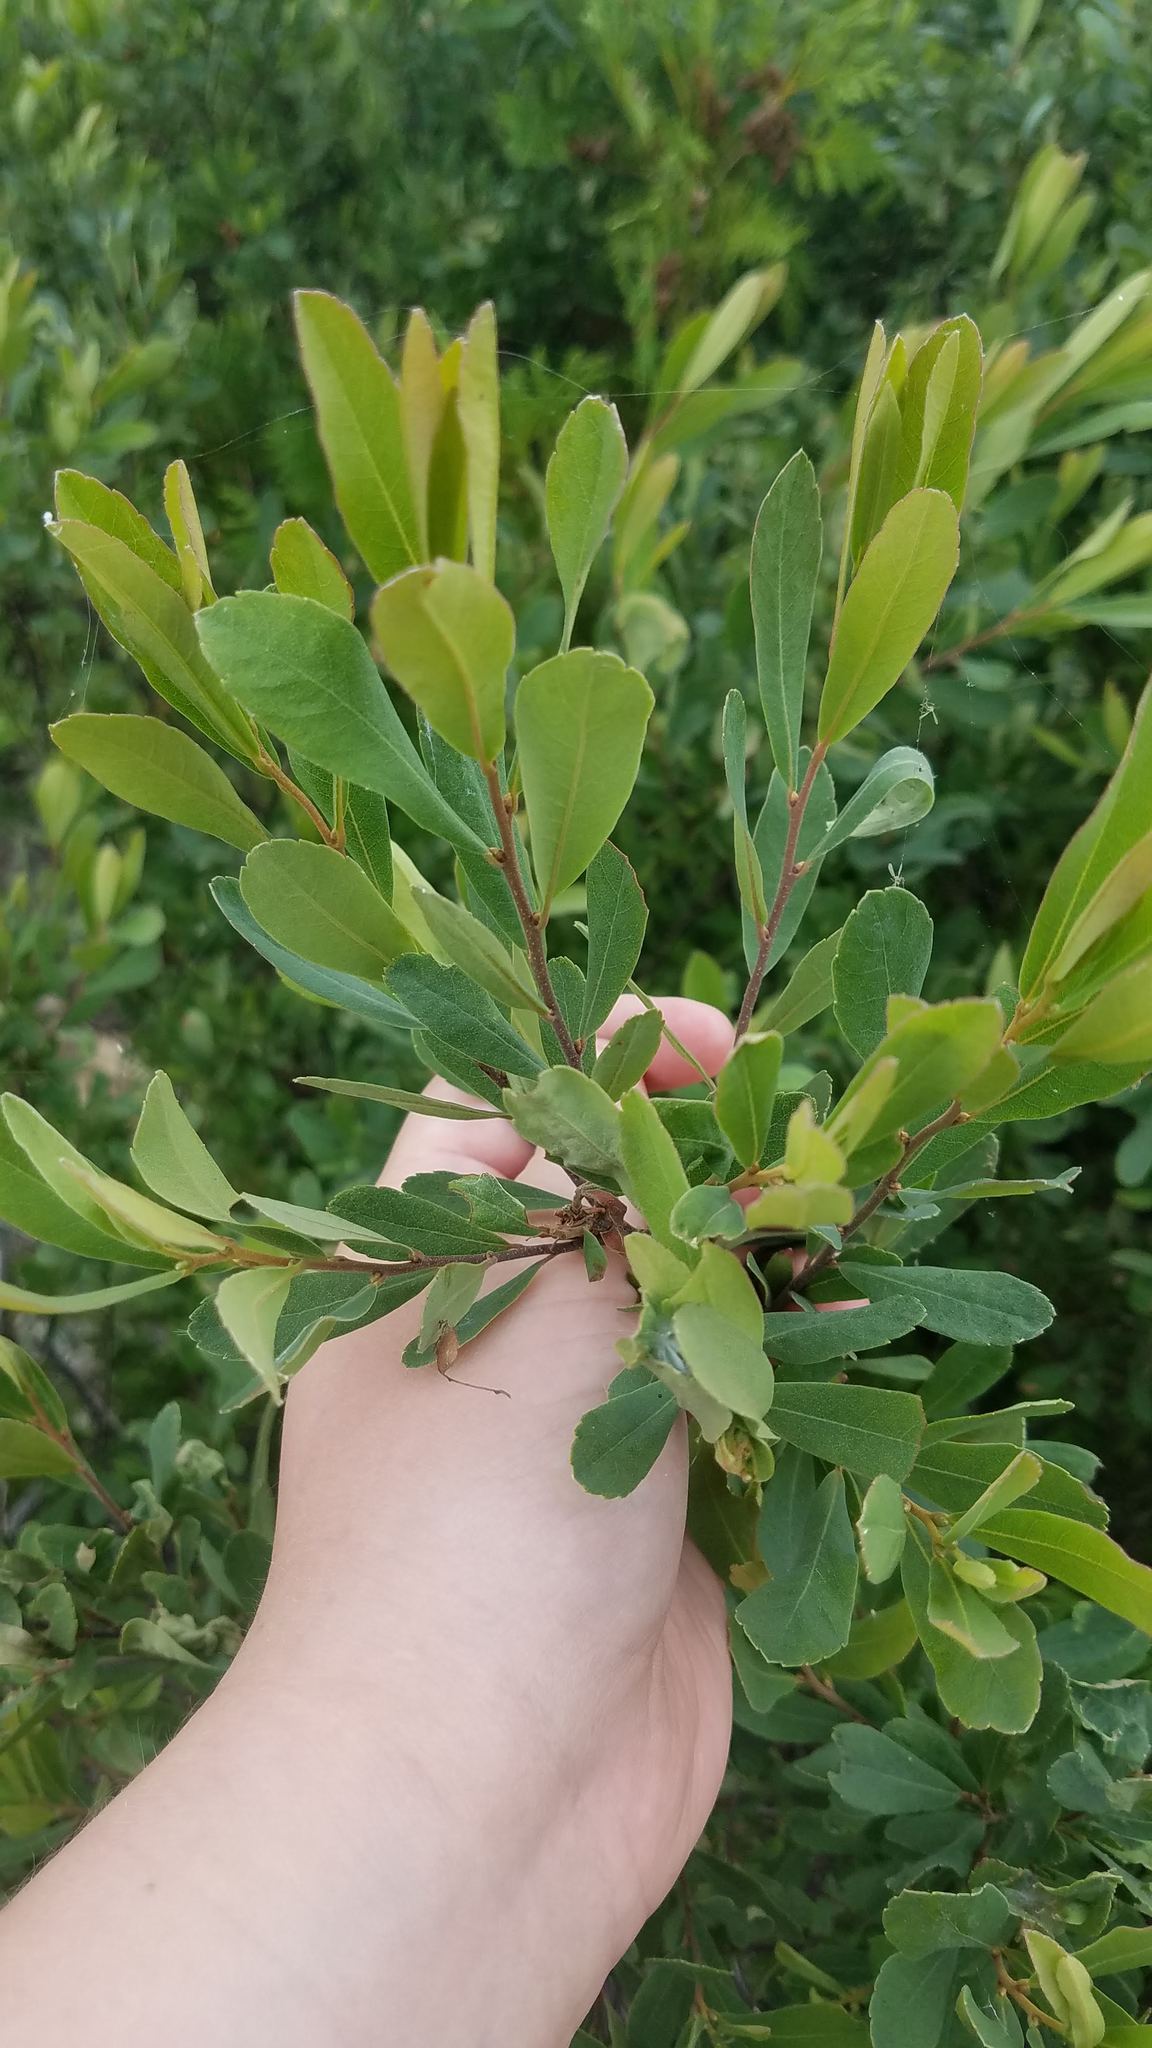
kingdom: Plantae
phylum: Tracheophyta
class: Magnoliopsida
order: Fagales
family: Myricaceae
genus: Myrica
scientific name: Myrica gale
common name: Sweet gale
